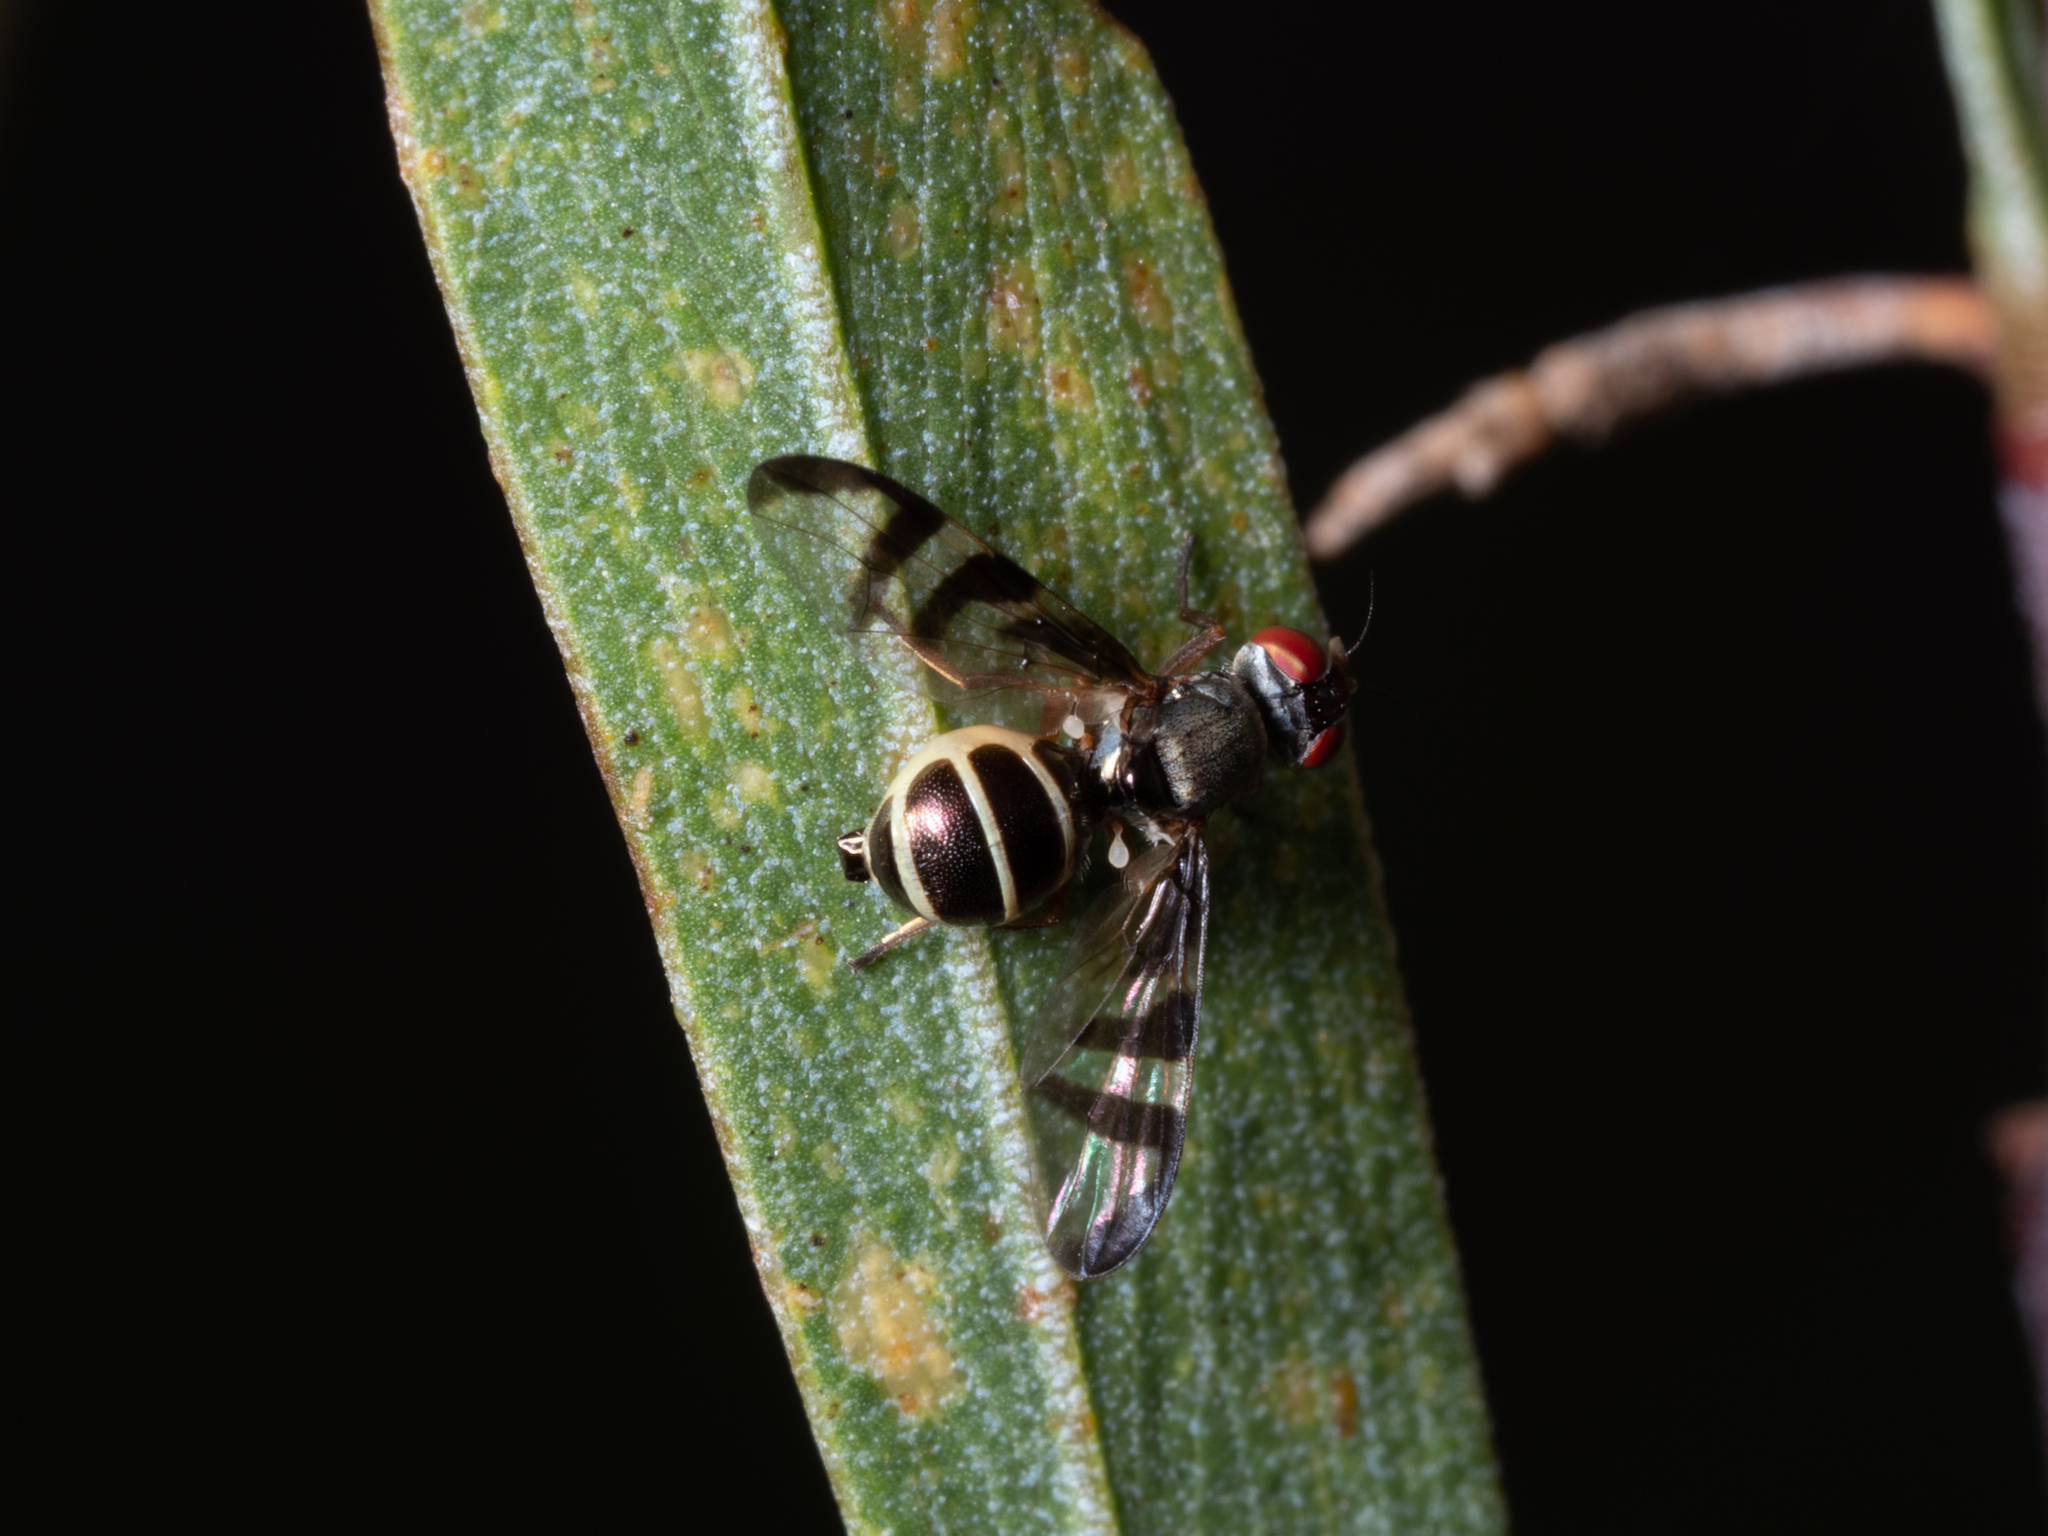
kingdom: Animalia
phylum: Arthropoda
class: Insecta
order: Diptera
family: Platystomatidae
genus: Rivellia
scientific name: Rivellia
